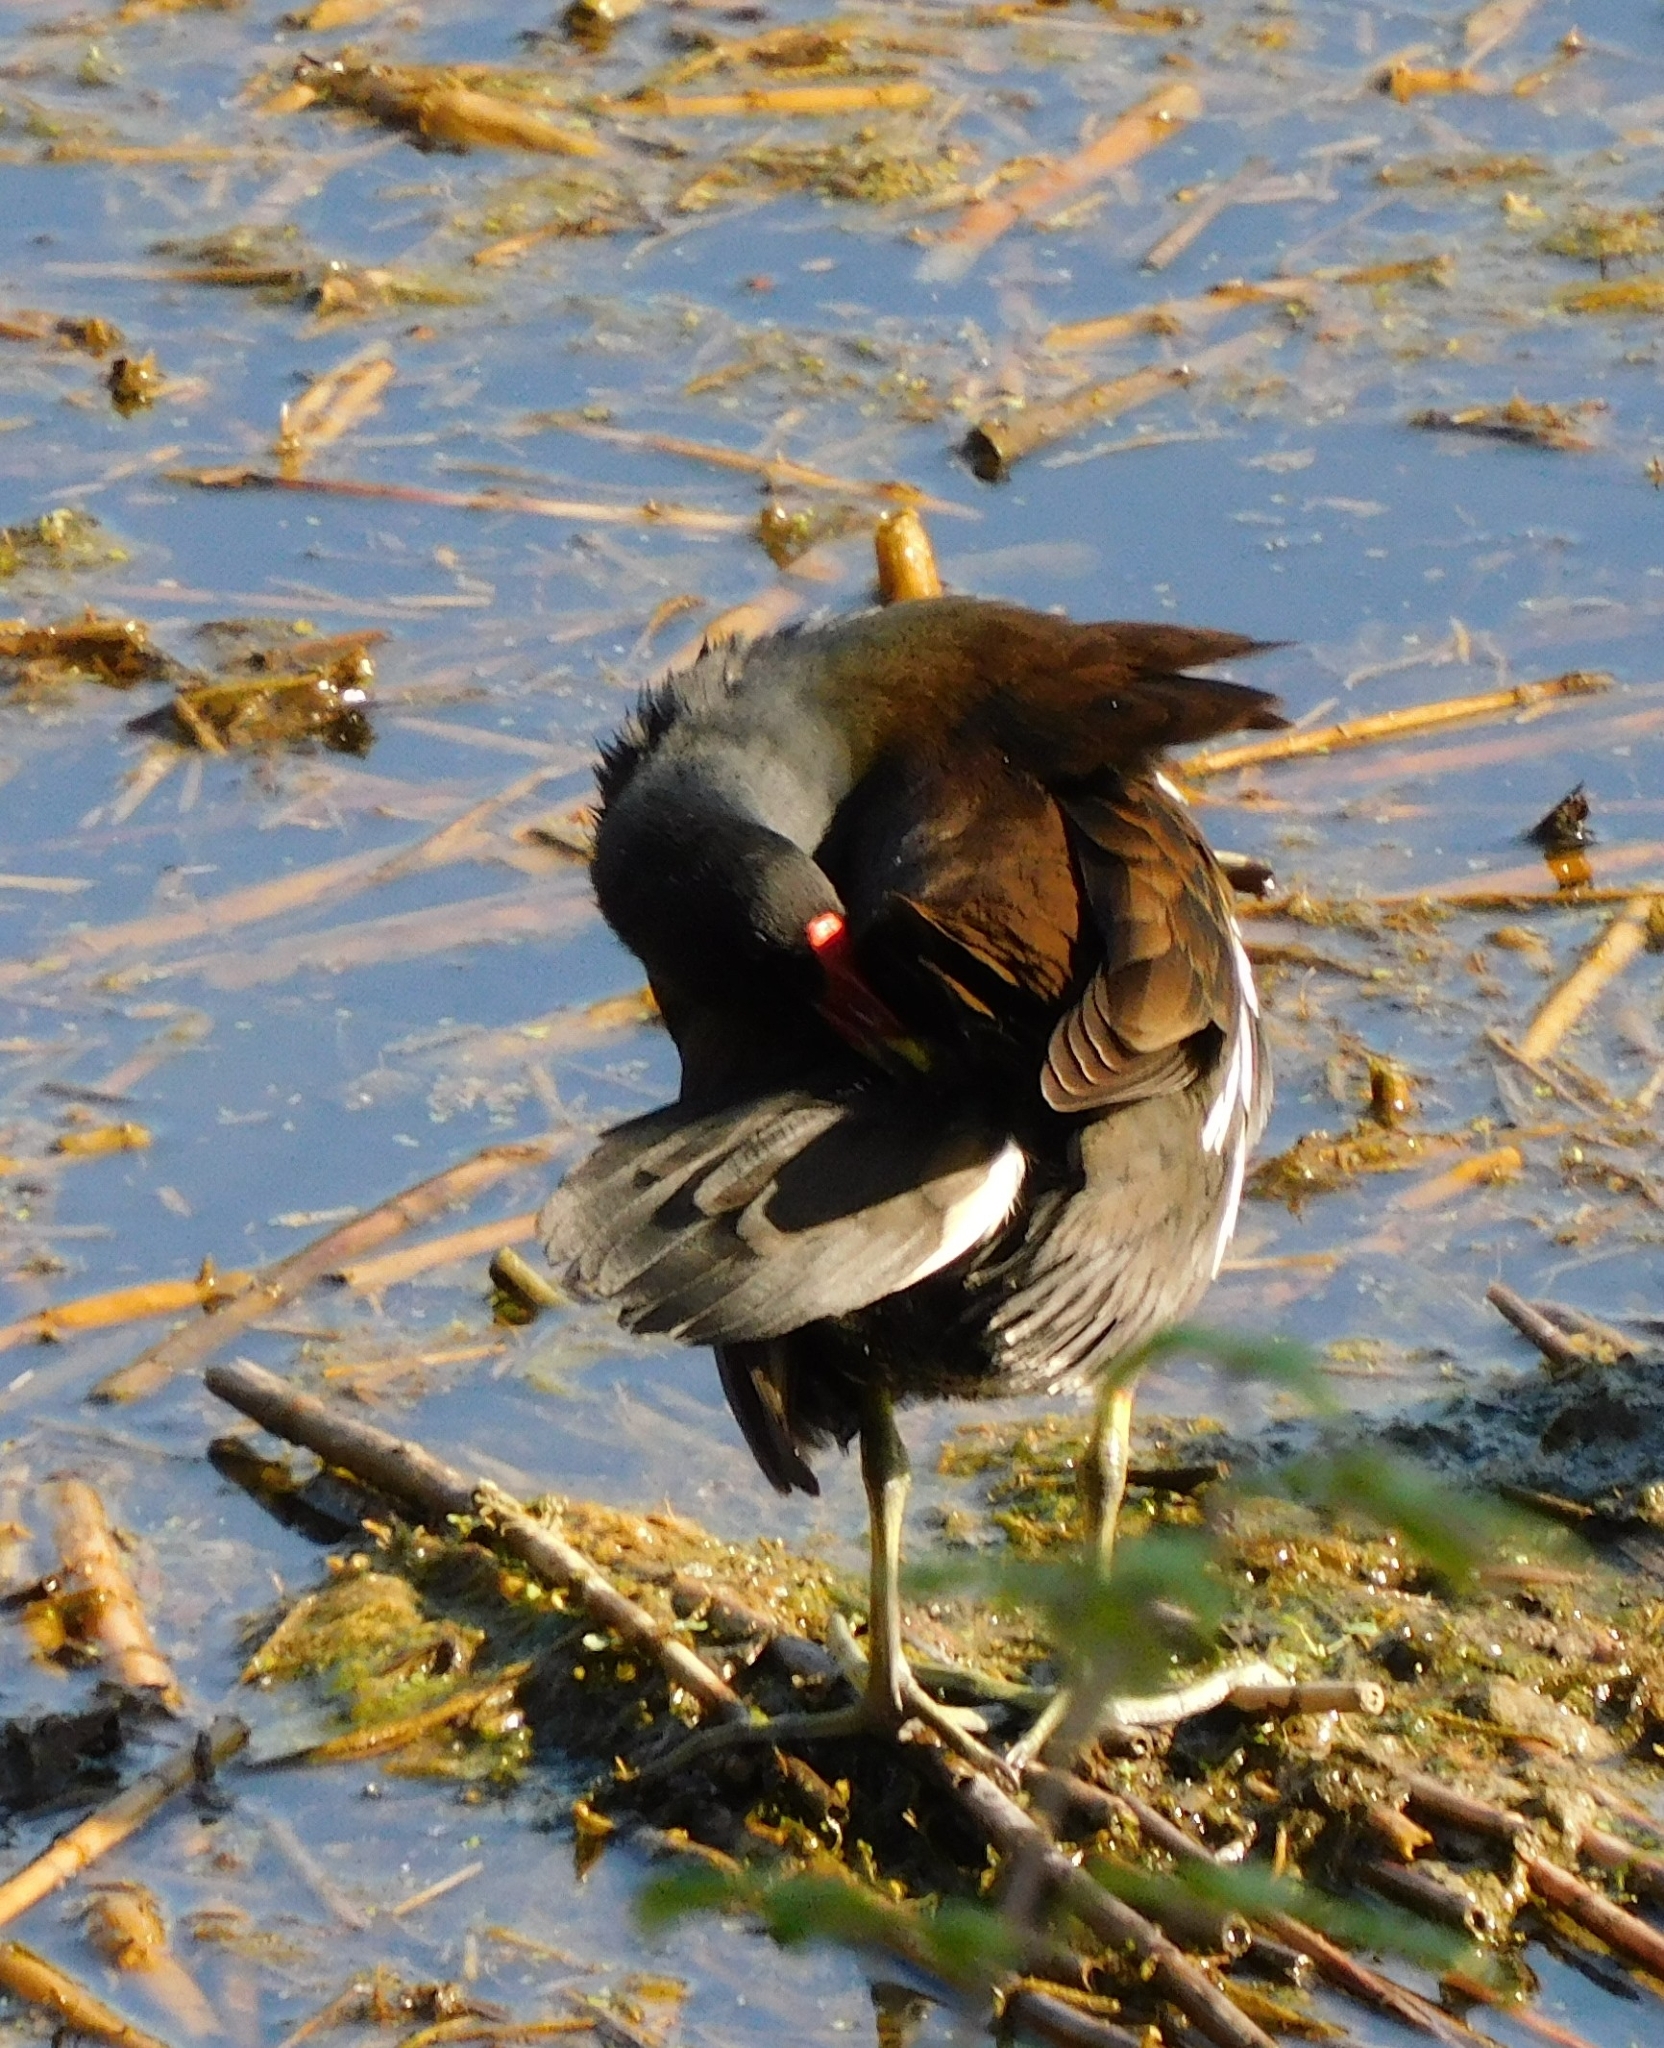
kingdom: Animalia
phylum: Chordata
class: Aves
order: Gruiformes
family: Rallidae
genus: Gallinula
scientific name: Gallinula chloropus
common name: Common moorhen
